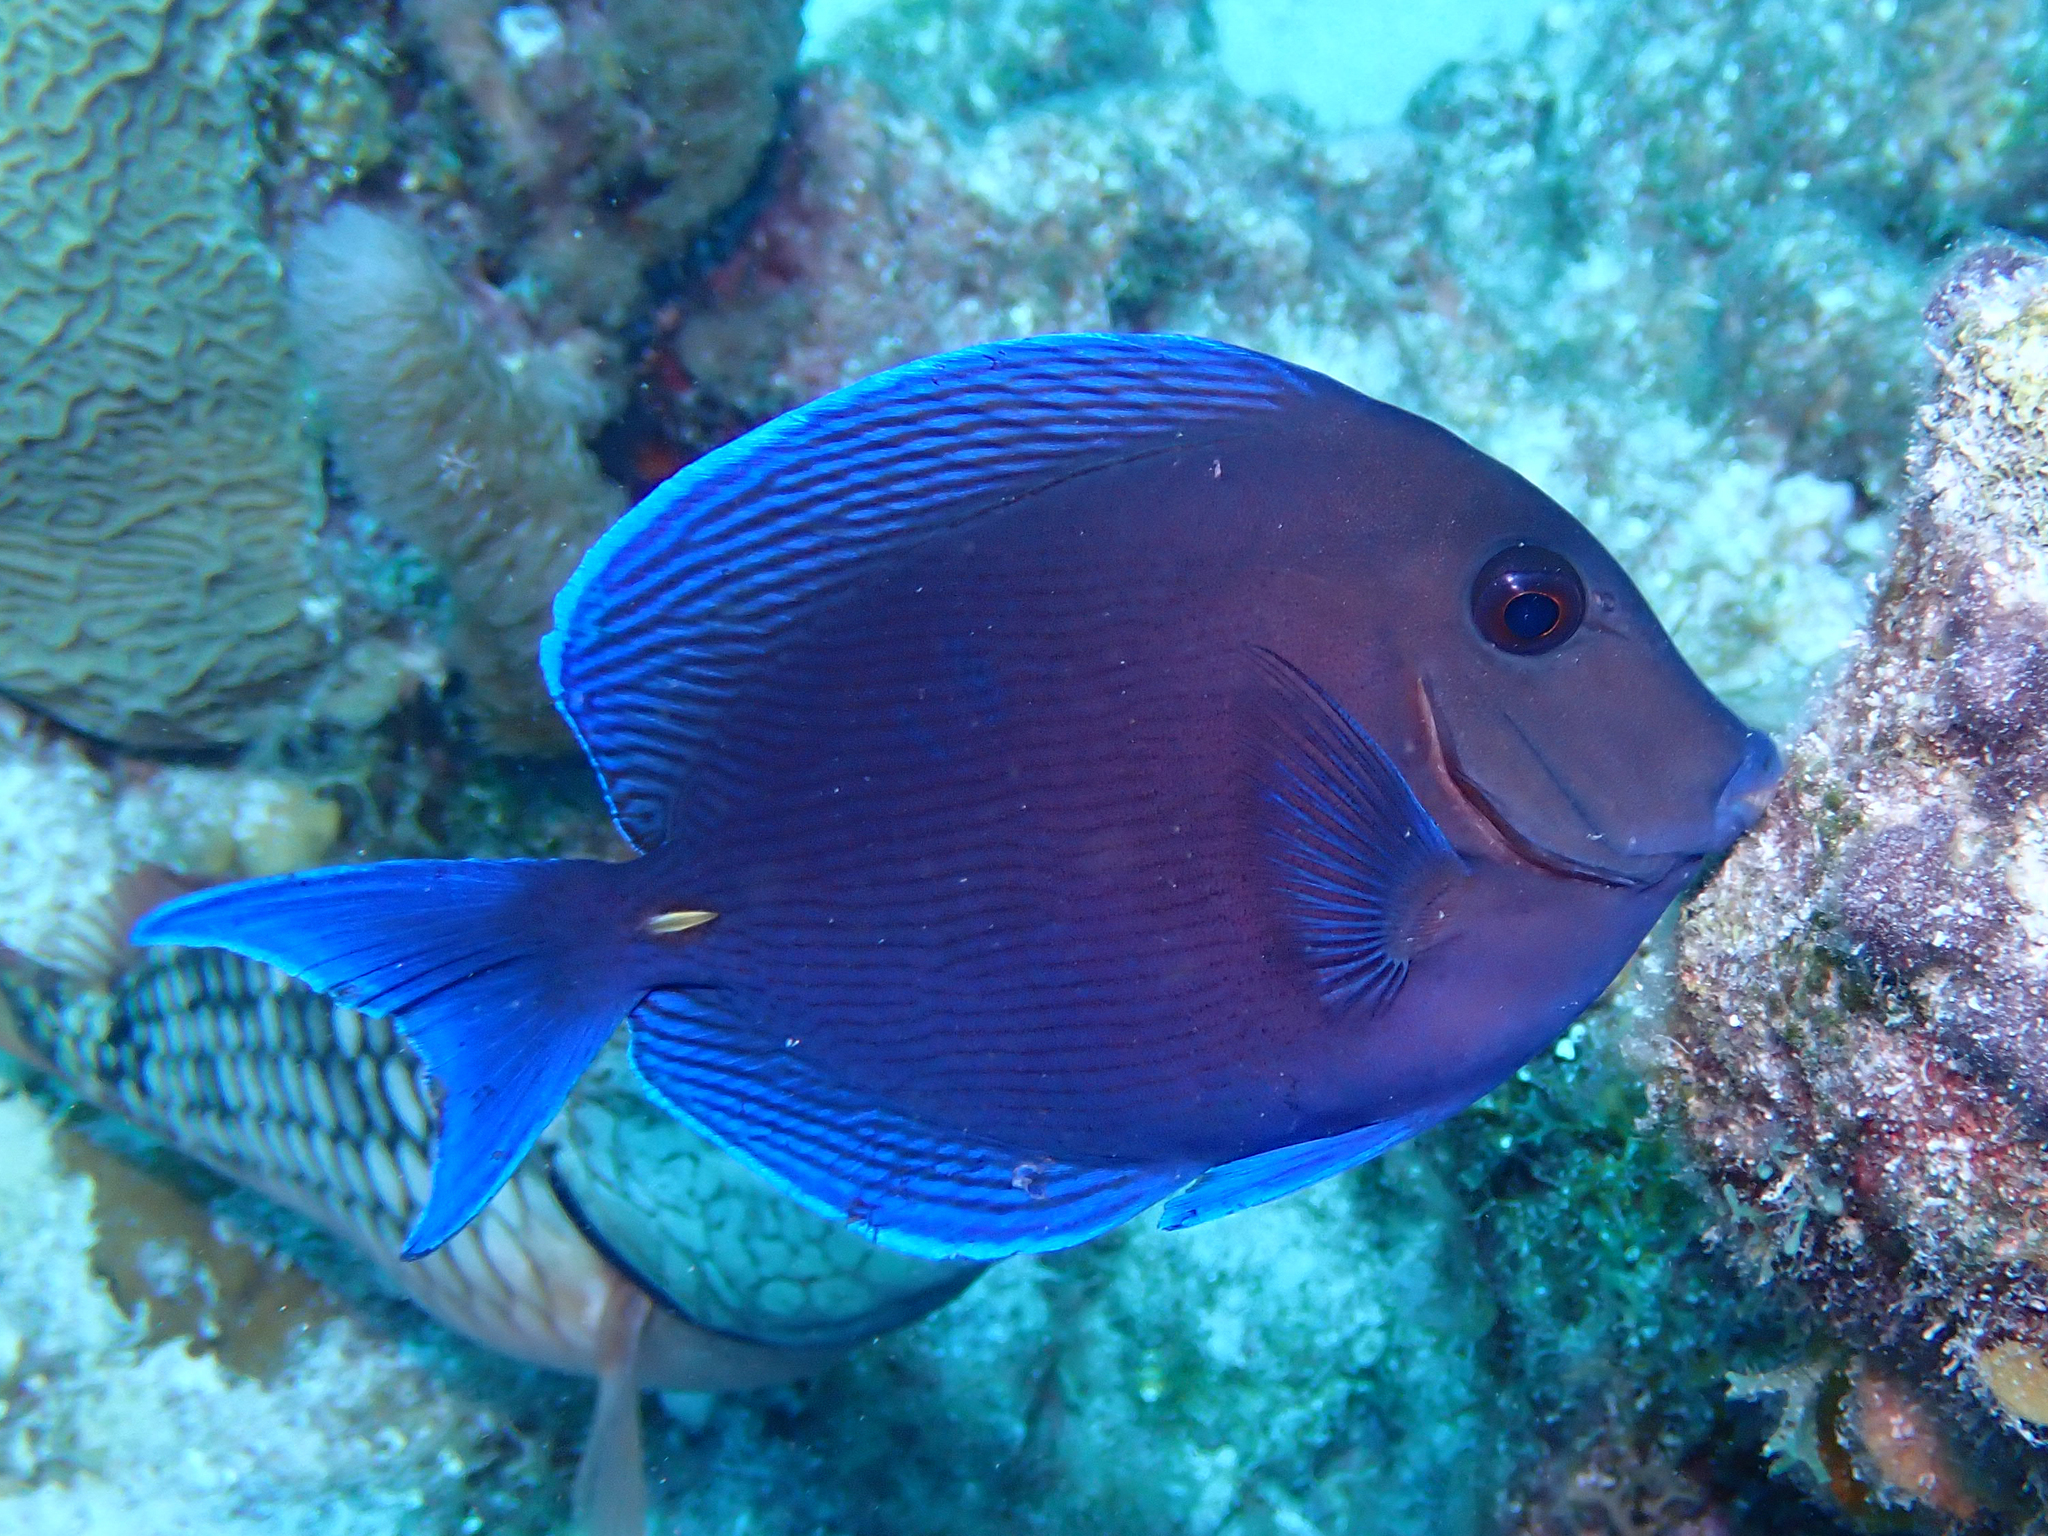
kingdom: Animalia
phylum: Chordata
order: Perciformes
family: Acanthuridae
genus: Acanthurus
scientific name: Acanthurus coeruleus
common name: Blue tang
